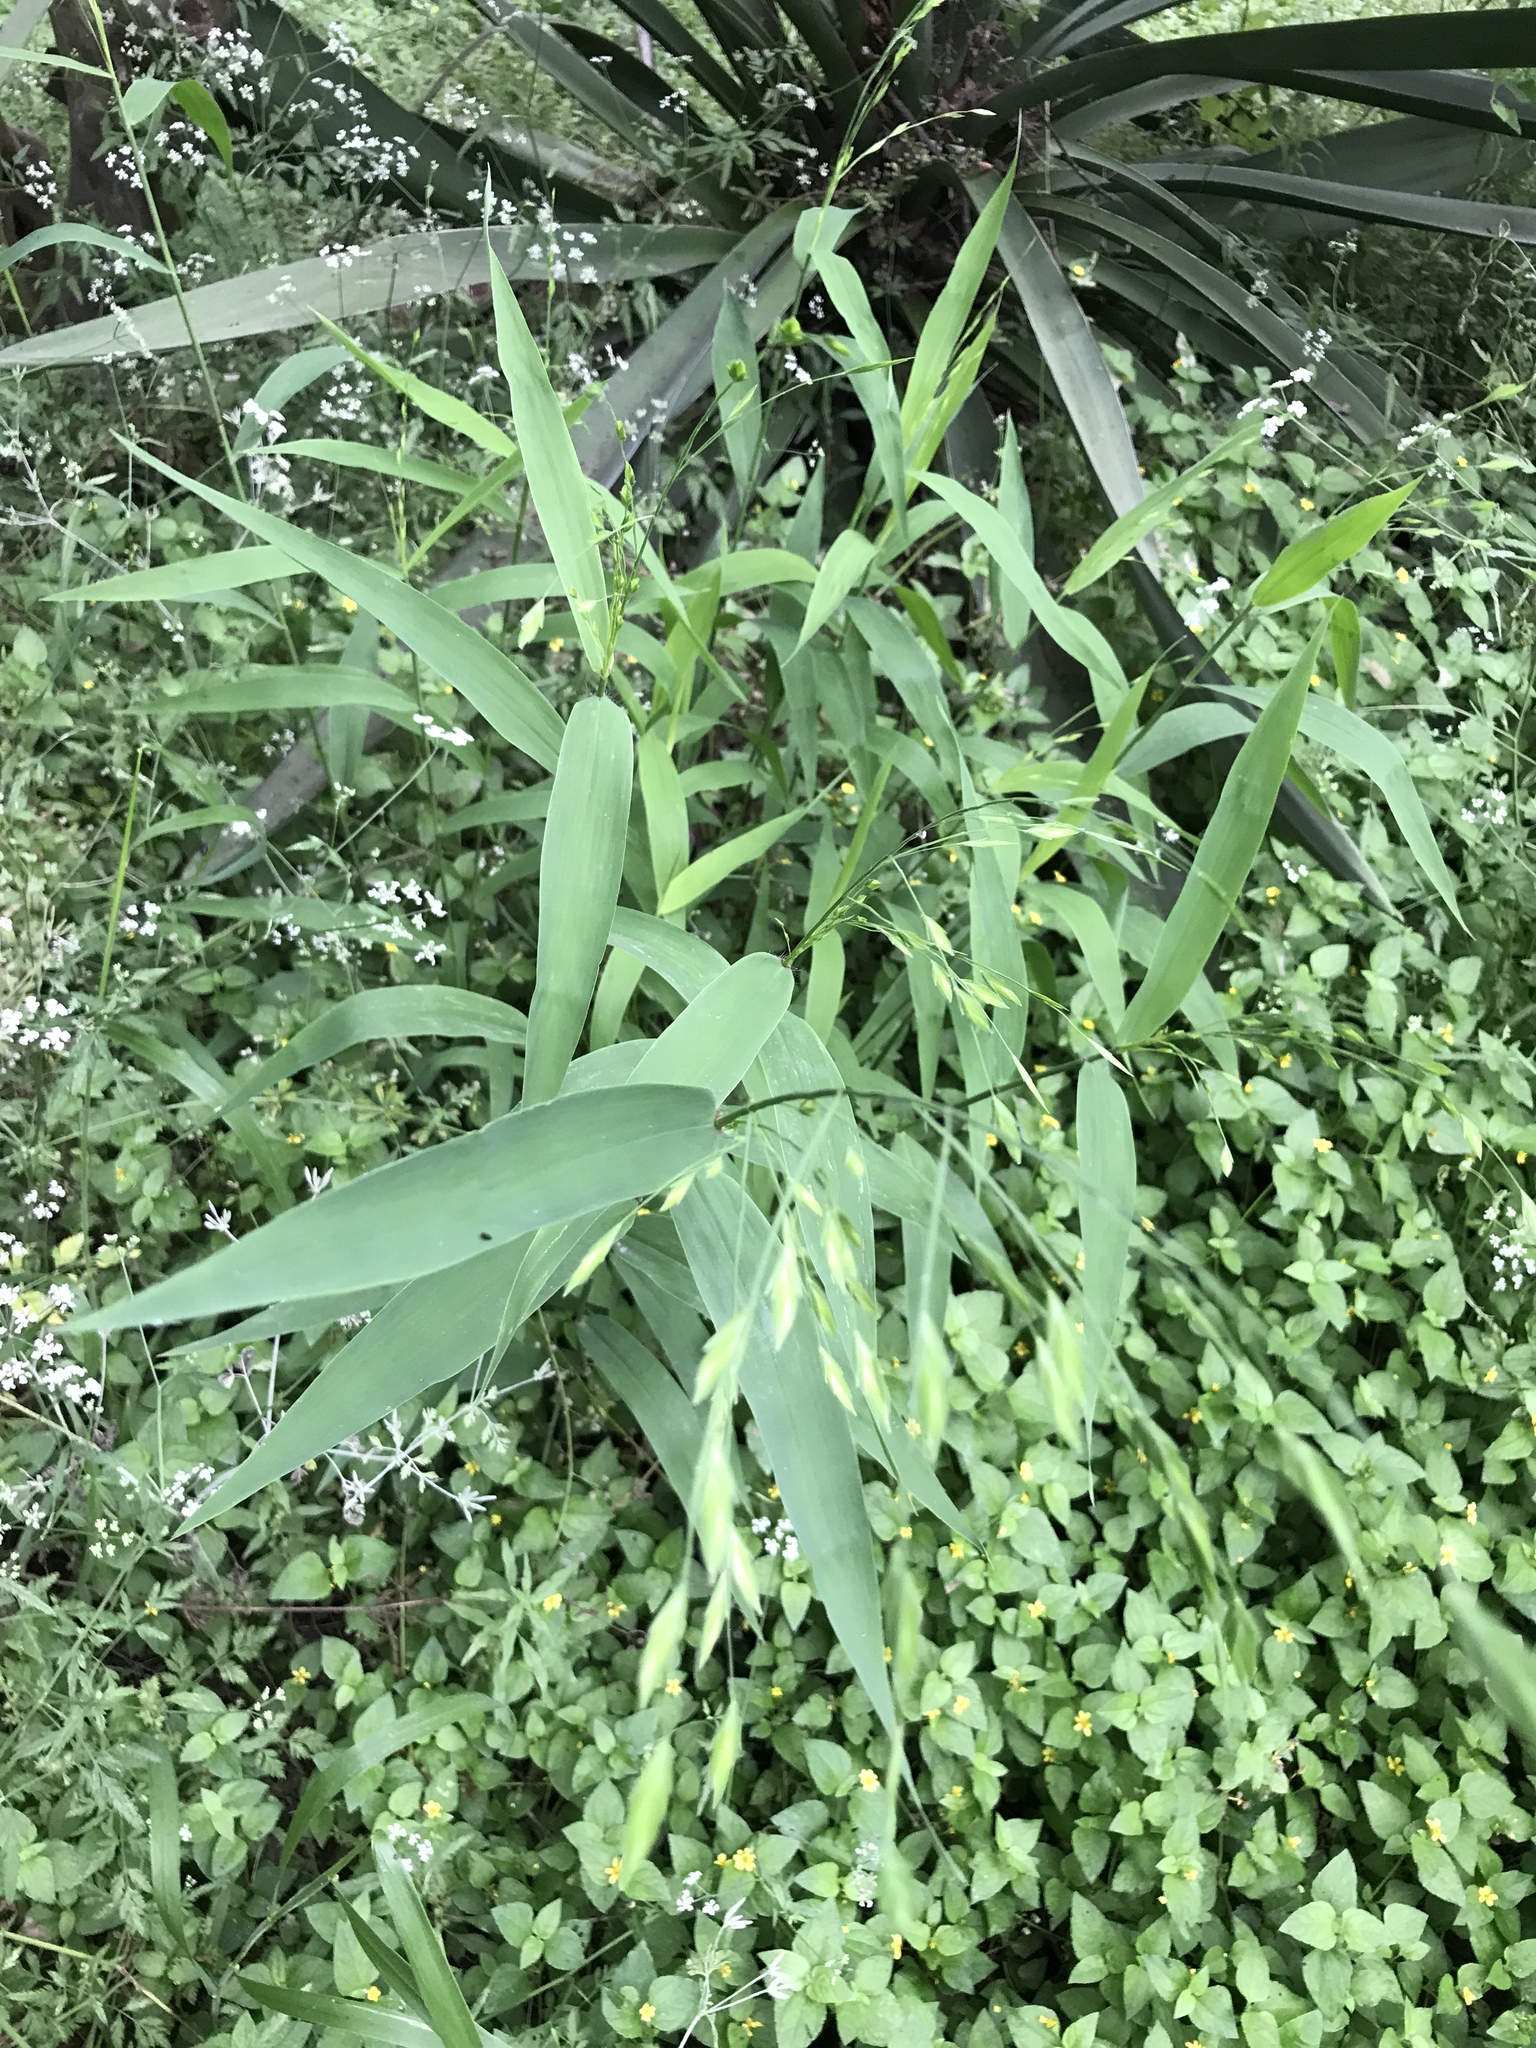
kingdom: Plantae
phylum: Tracheophyta
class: Liliopsida
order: Poales
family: Poaceae
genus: Chasmanthium
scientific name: Chasmanthium latifolium
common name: Broad-leaved chasmanthium
